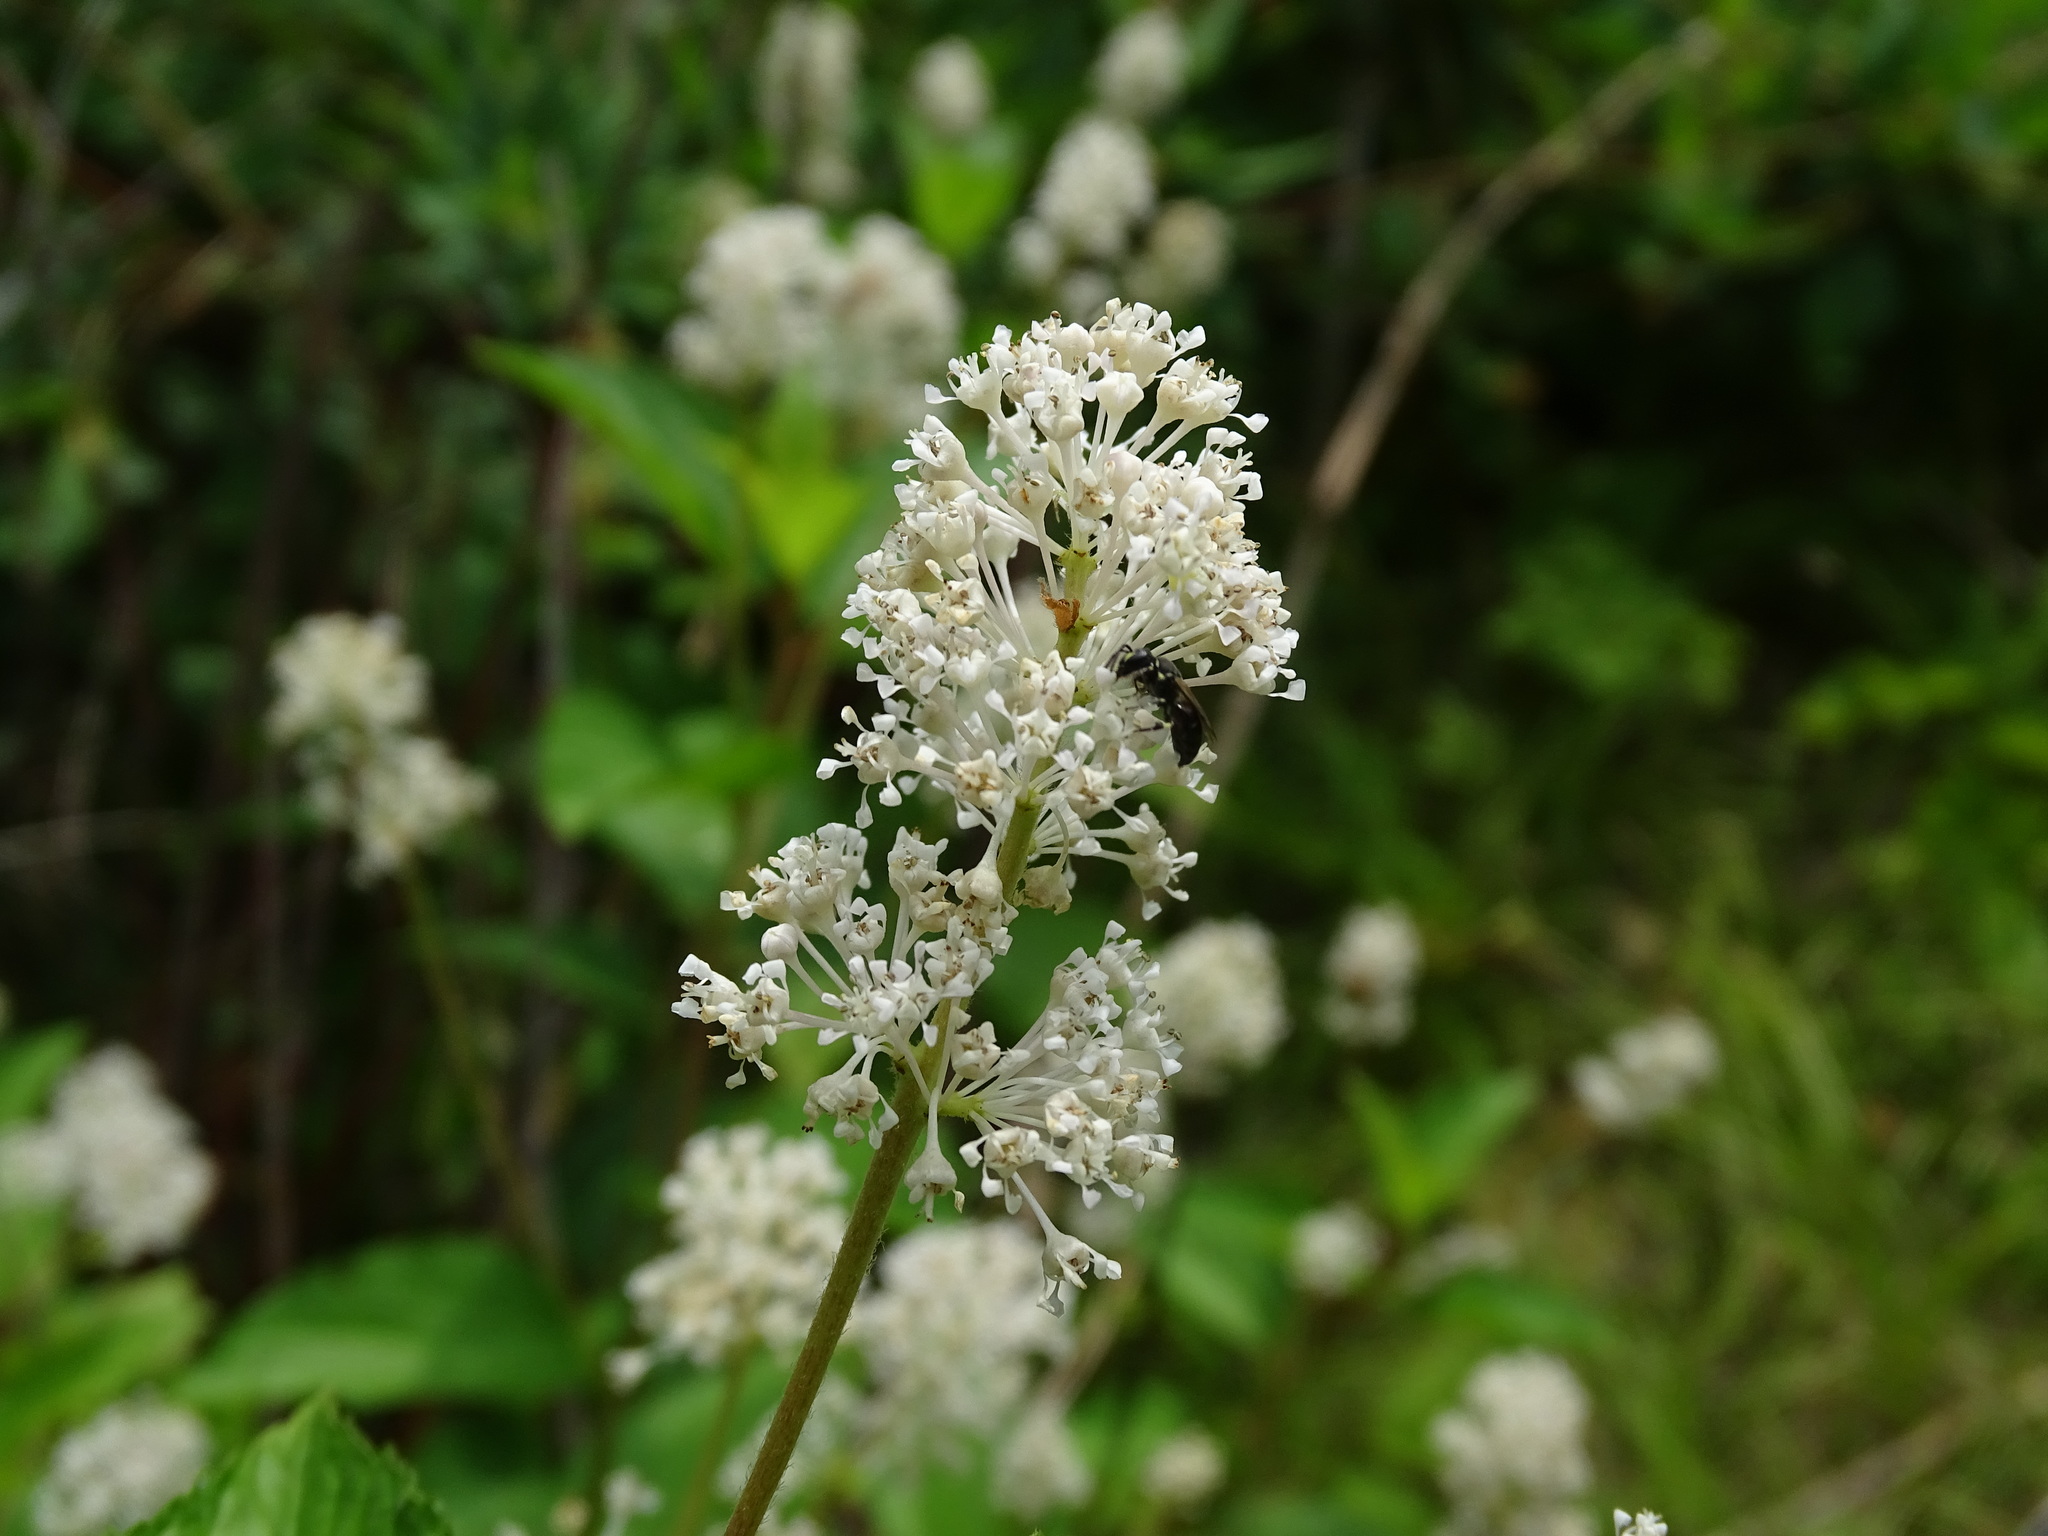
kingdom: Plantae
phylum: Tracheophyta
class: Magnoliopsida
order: Rosales
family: Rhamnaceae
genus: Ceanothus
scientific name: Ceanothus americanus
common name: Redroot
